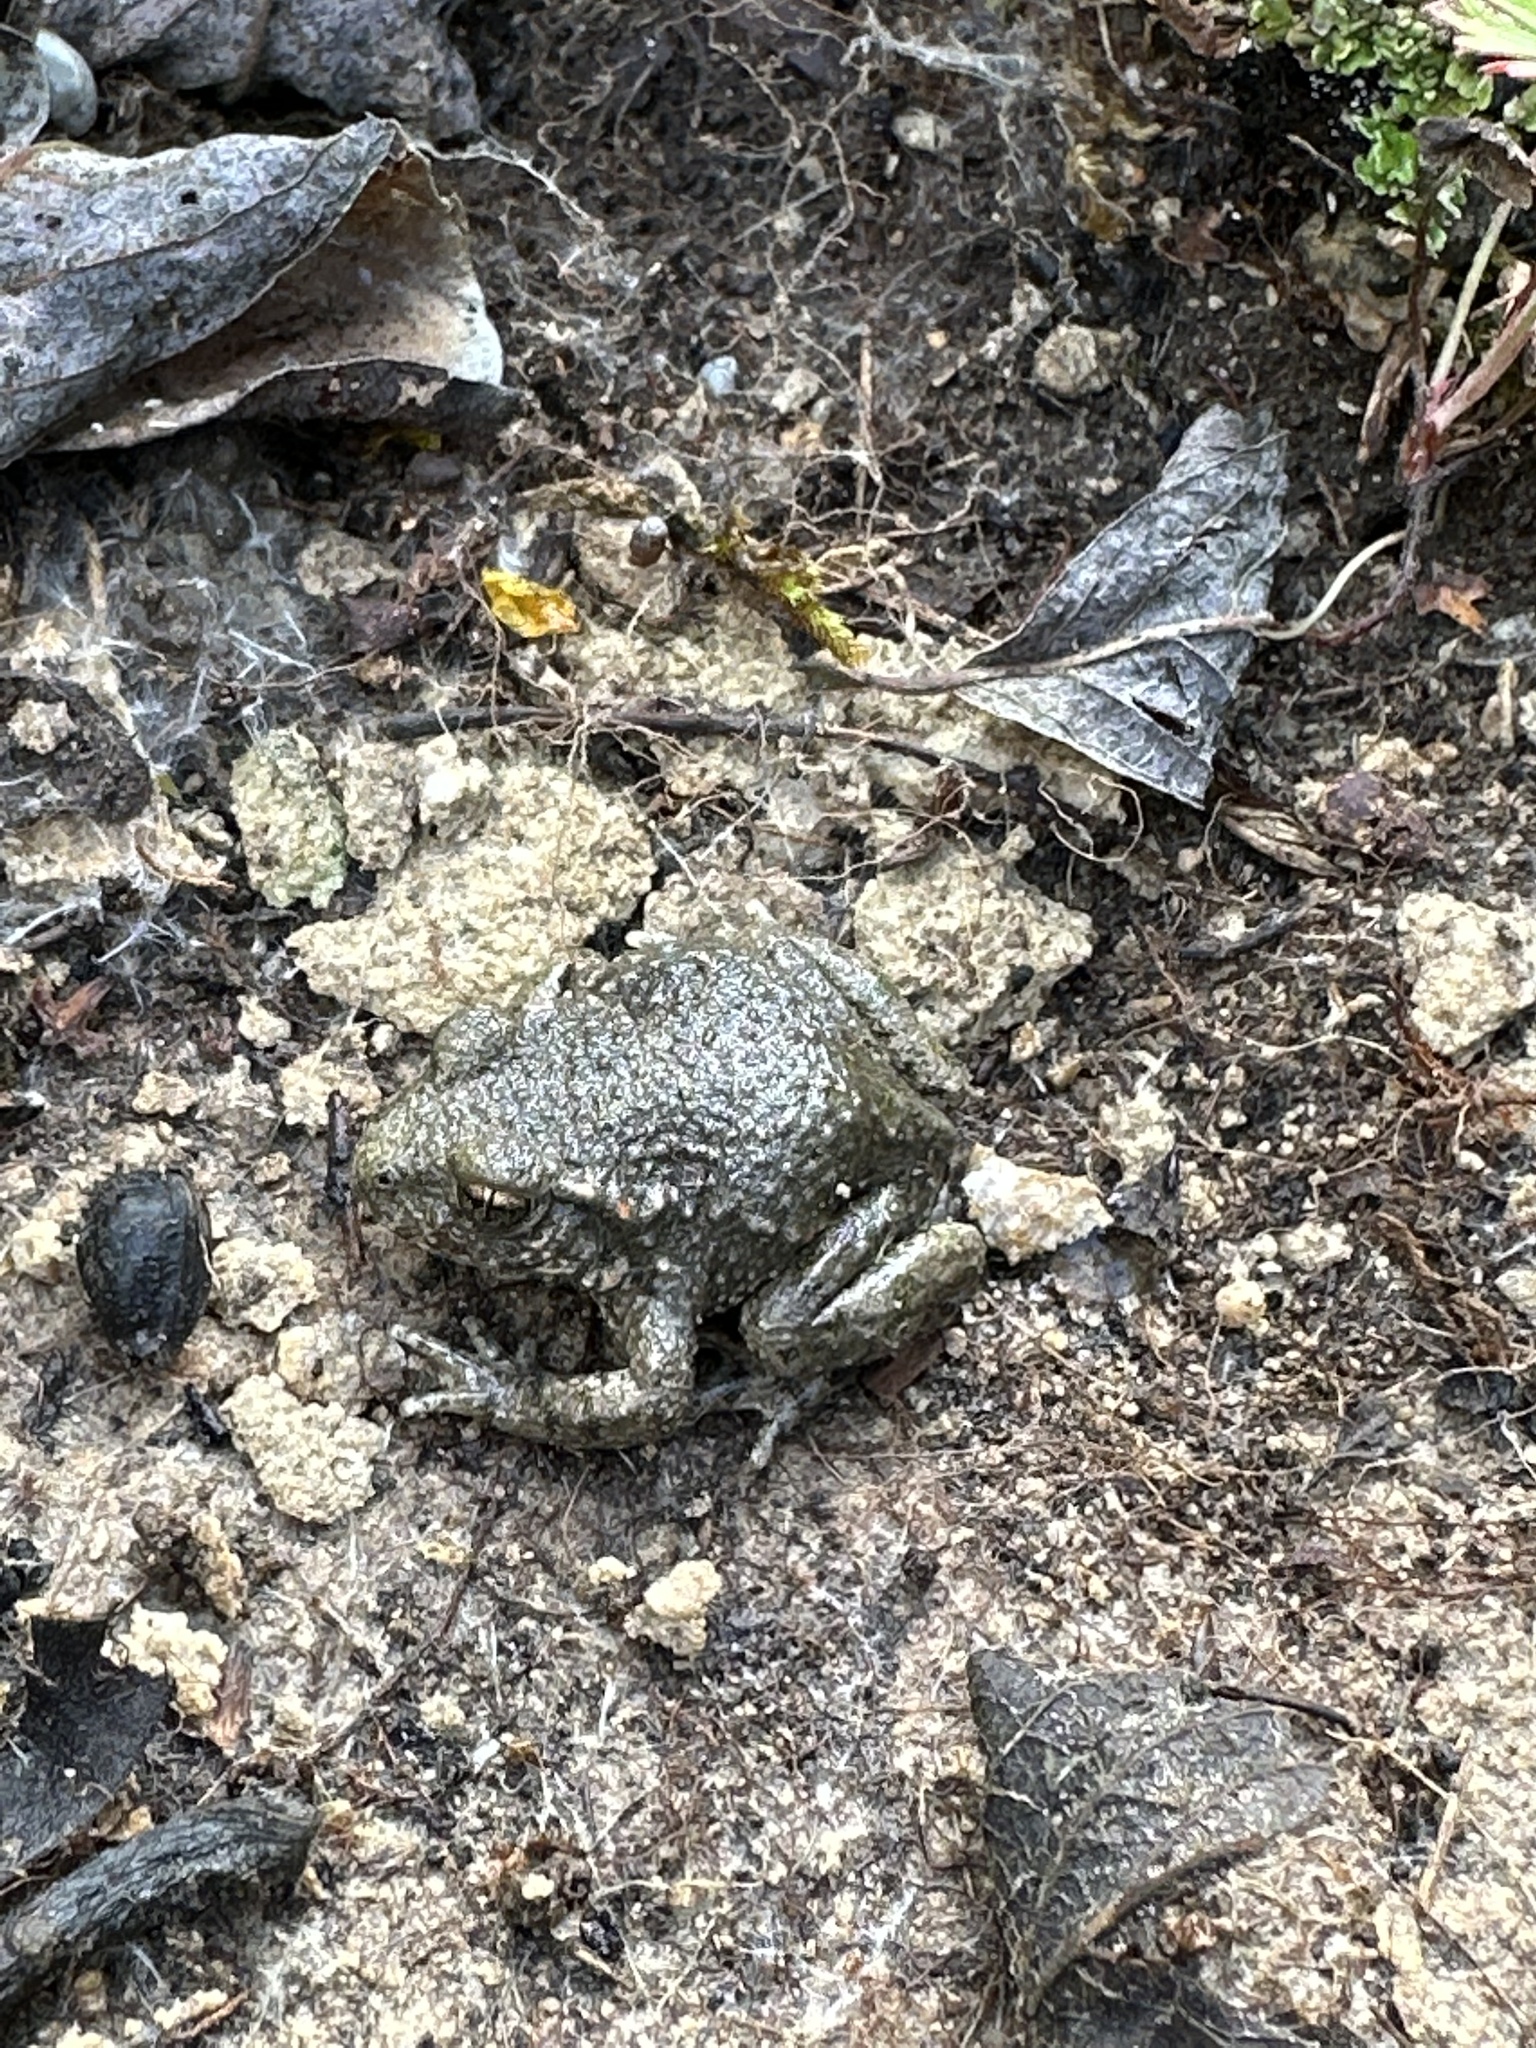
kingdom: Animalia
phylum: Chordata
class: Amphibia
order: Anura
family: Alytidae
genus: Alytes
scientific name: Alytes obstetricans
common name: Midwife toad
